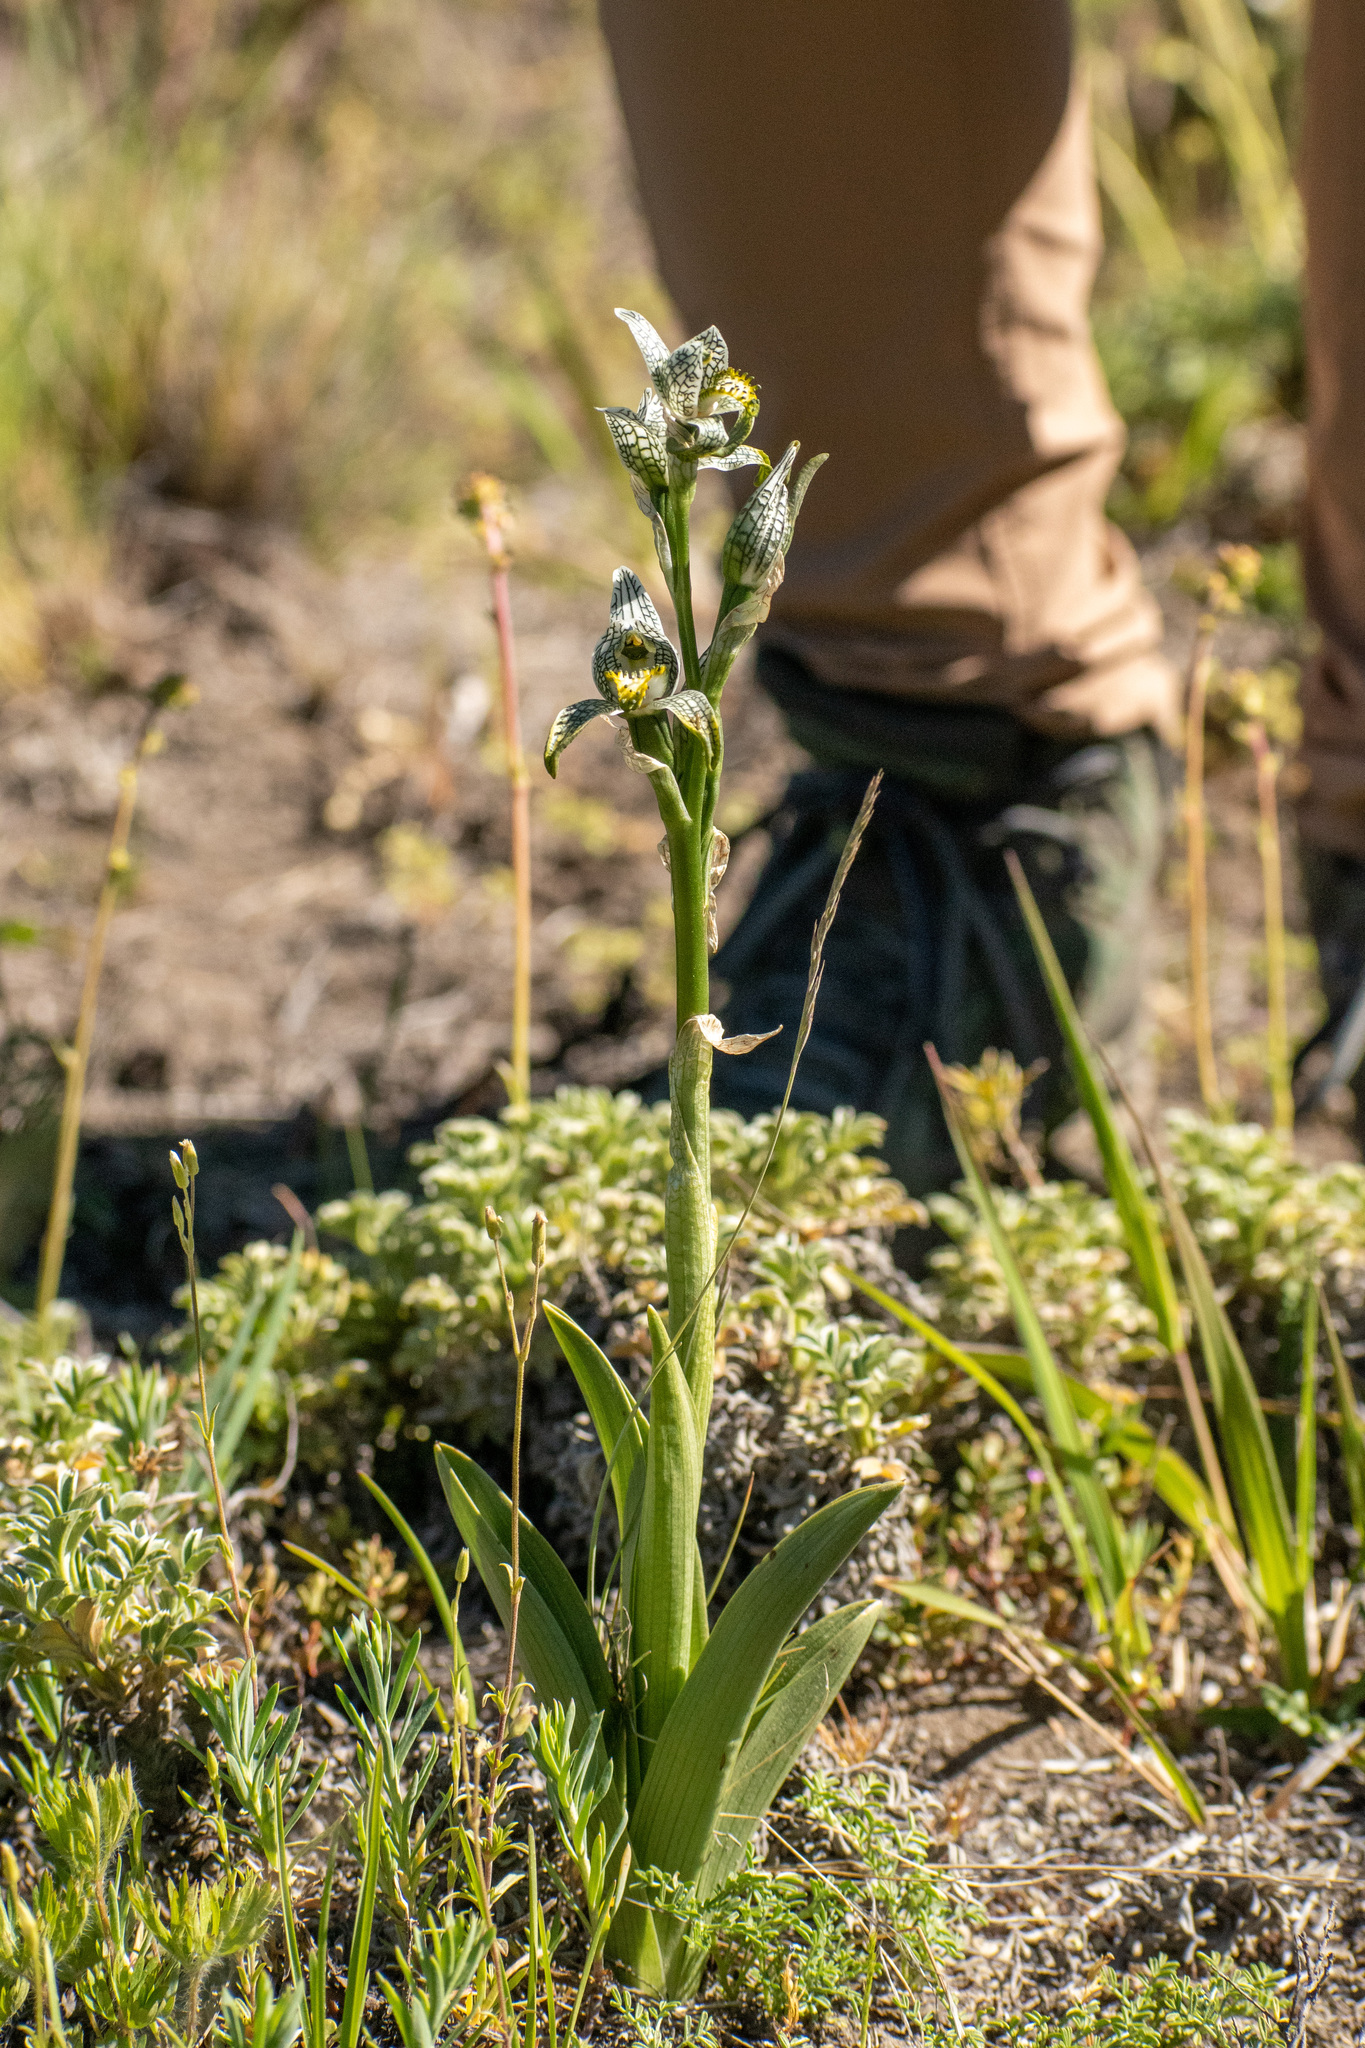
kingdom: Plantae
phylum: Tracheophyta
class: Liliopsida
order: Asparagales
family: Orchidaceae
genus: Chloraea
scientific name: Chloraea magellanica
